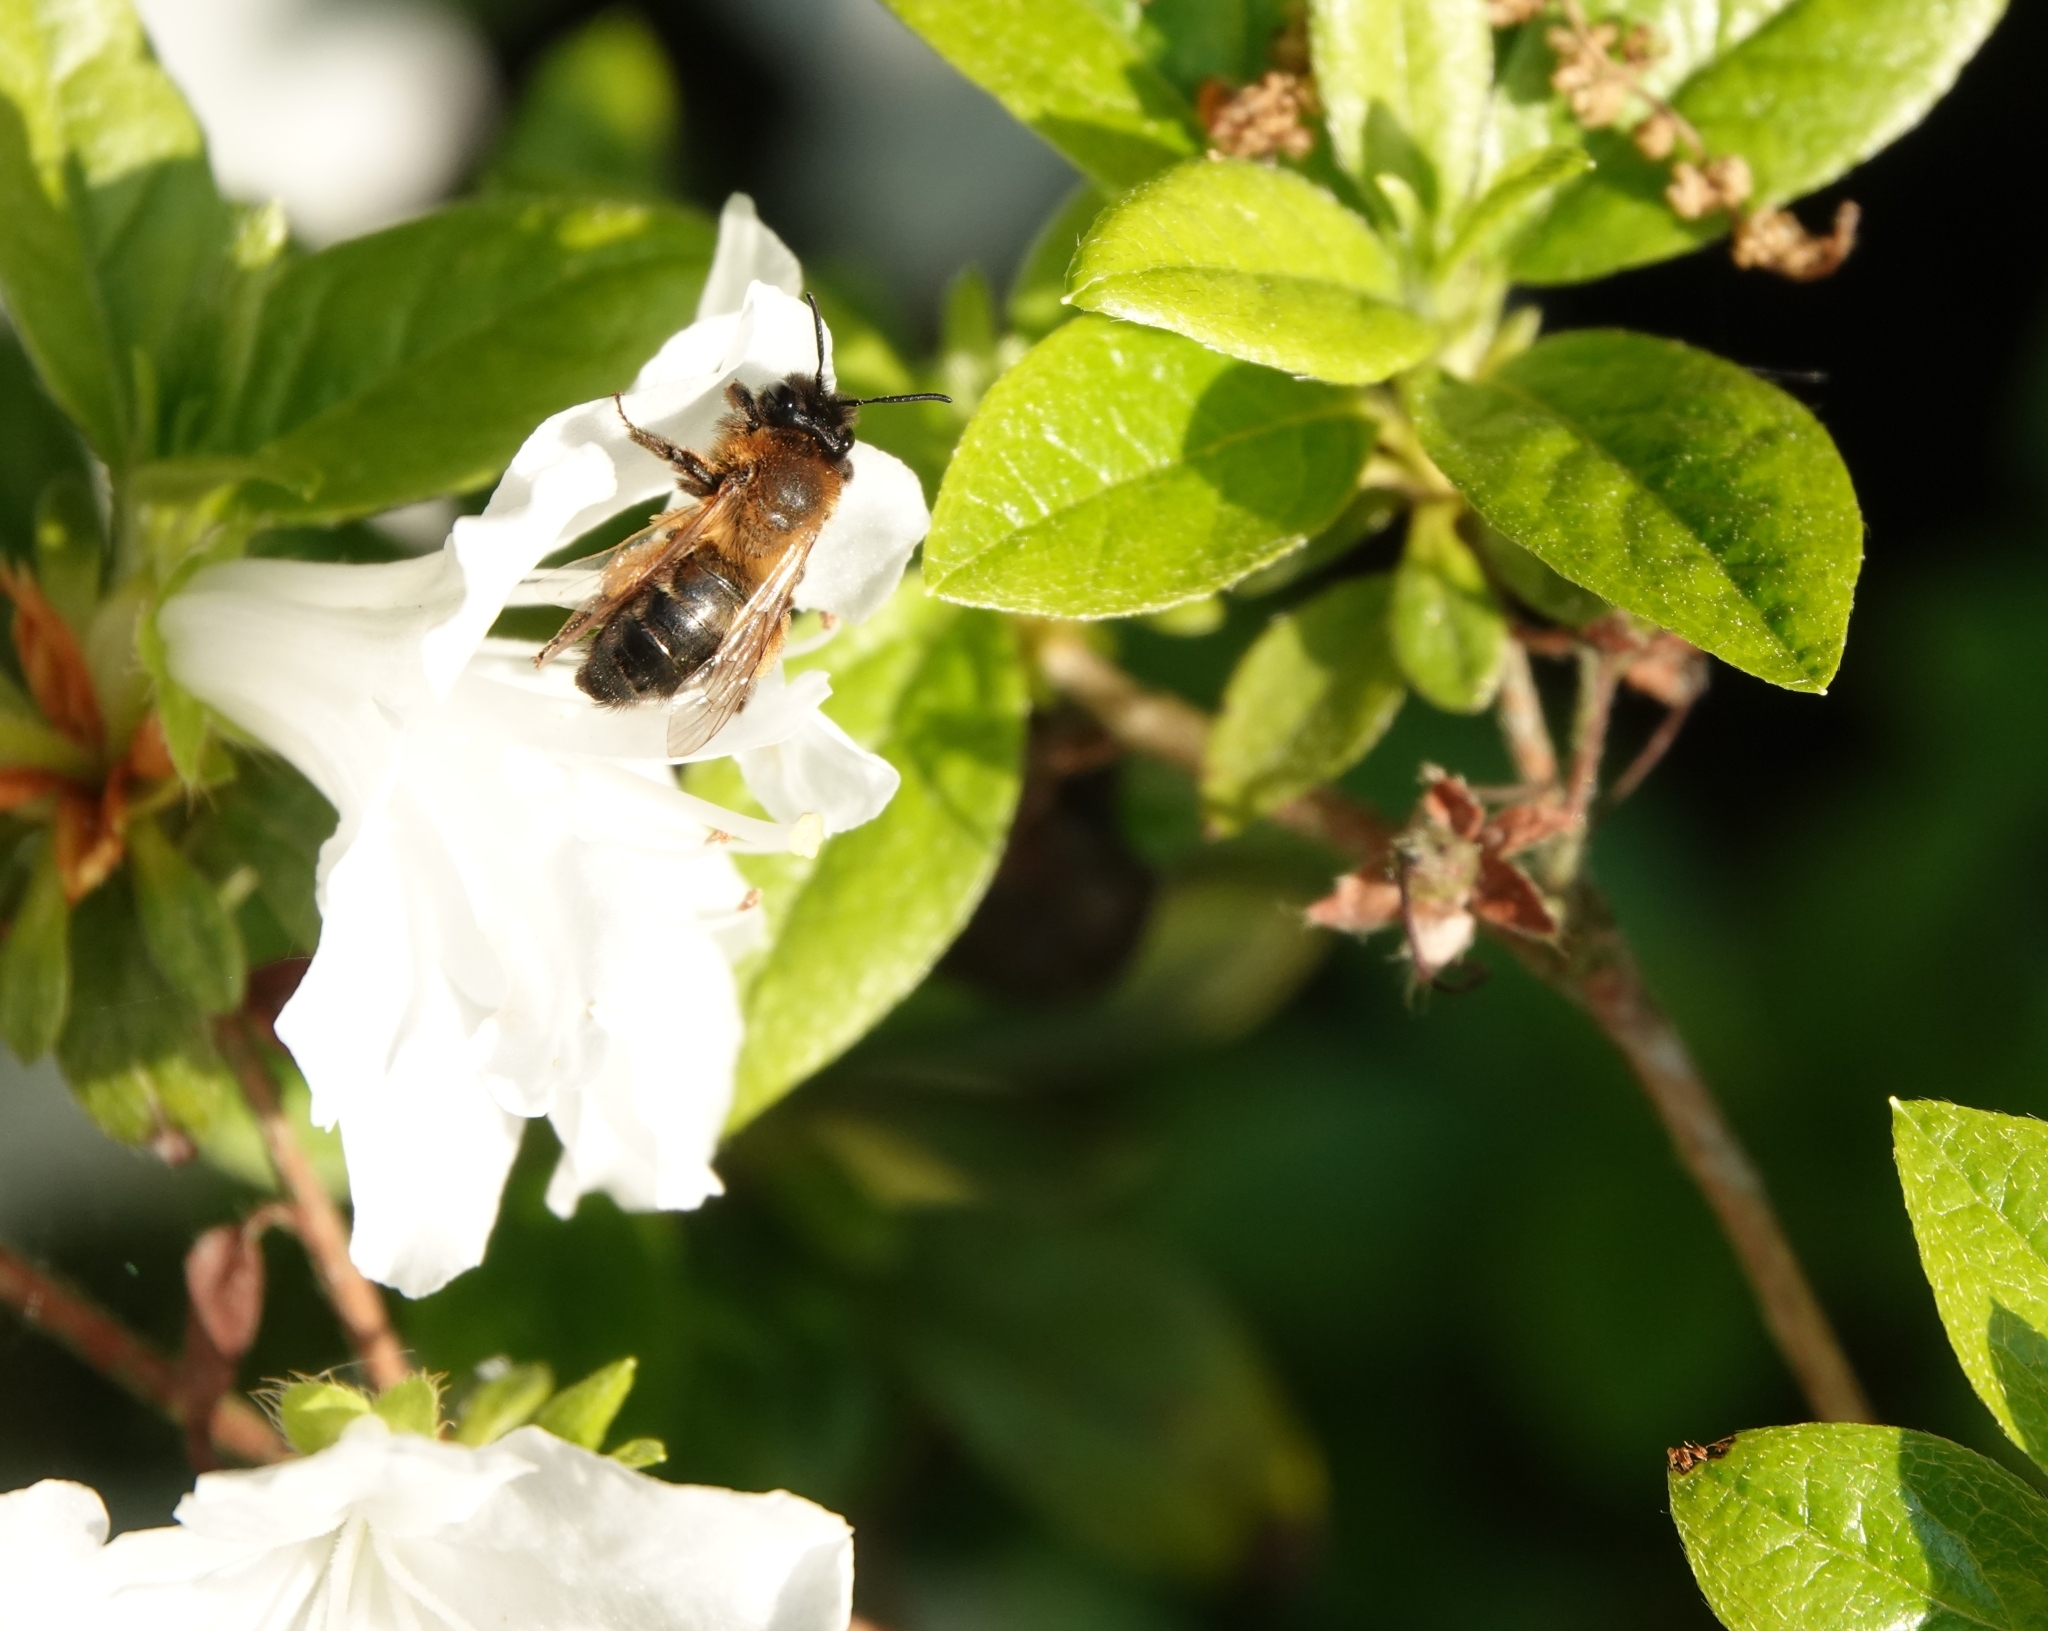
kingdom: Animalia
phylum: Arthropoda
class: Insecta
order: Hymenoptera
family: Andrenidae
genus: Andrena
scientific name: Andrena nigroaenea
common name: Buffish mining bee
